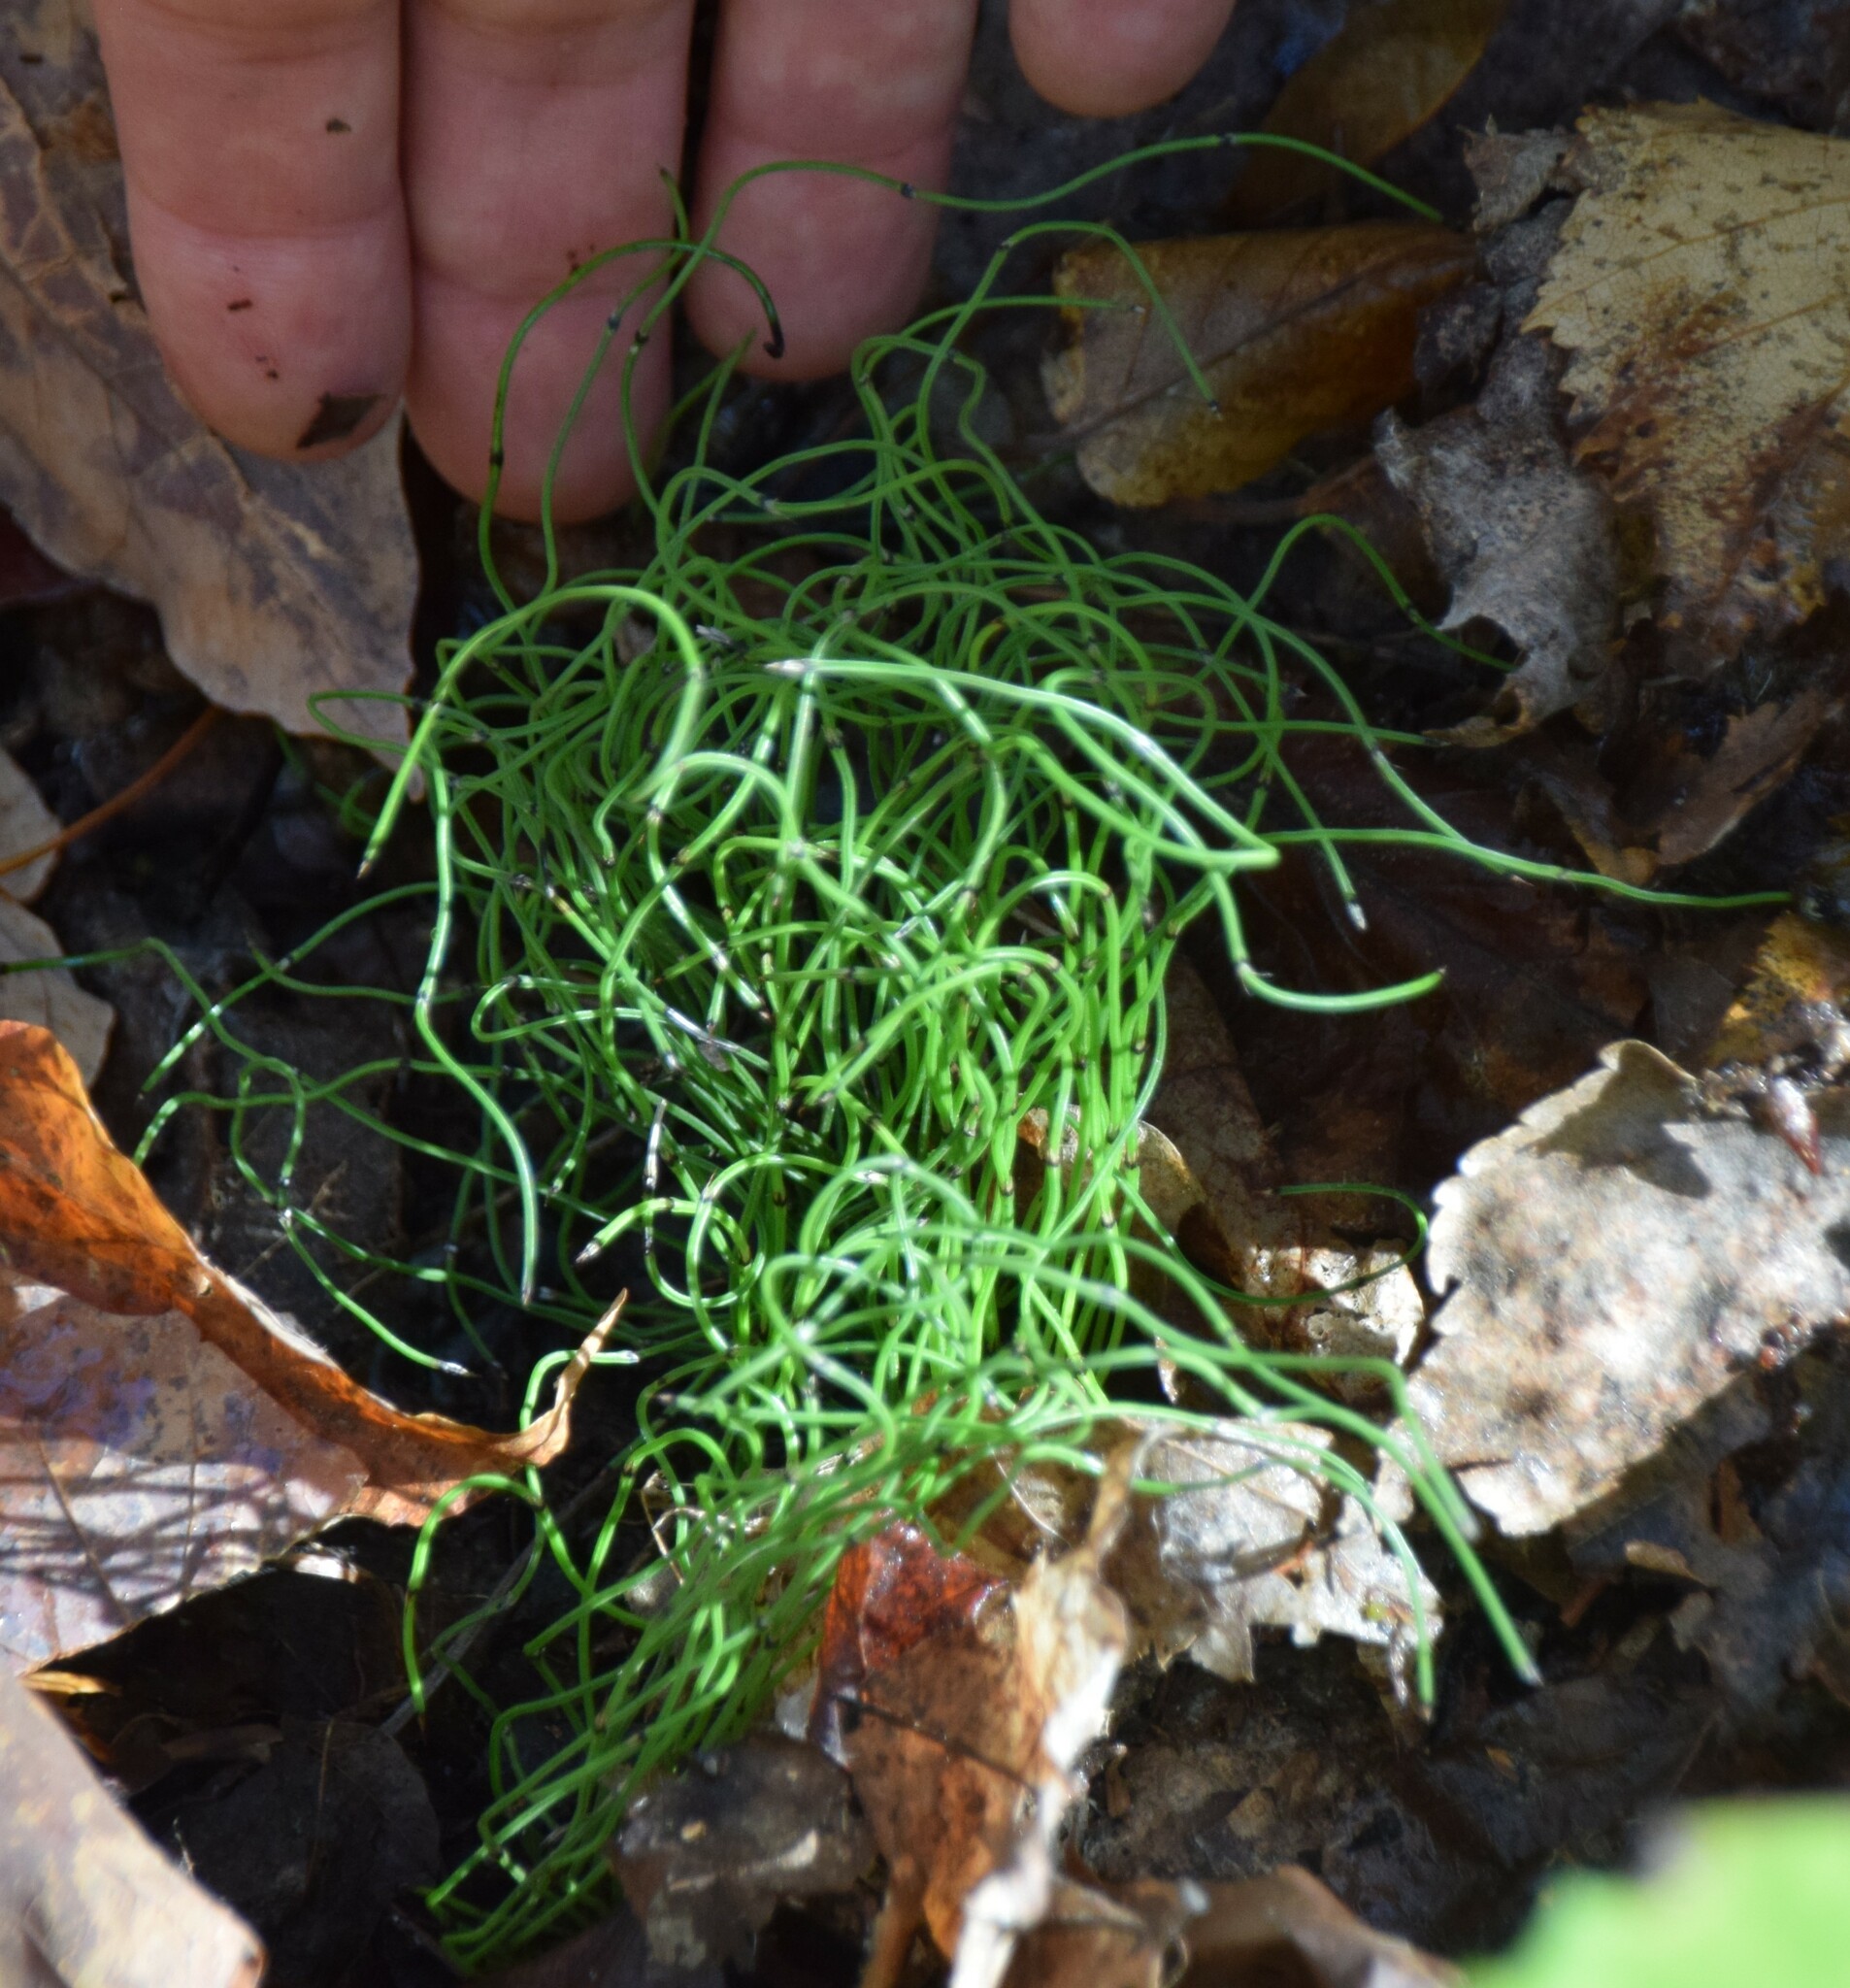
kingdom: Plantae
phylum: Tracheophyta
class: Polypodiopsida
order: Equisetales
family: Equisetaceae
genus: Equisetum
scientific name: Equisetum scirpoides
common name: Delicate horsetail
